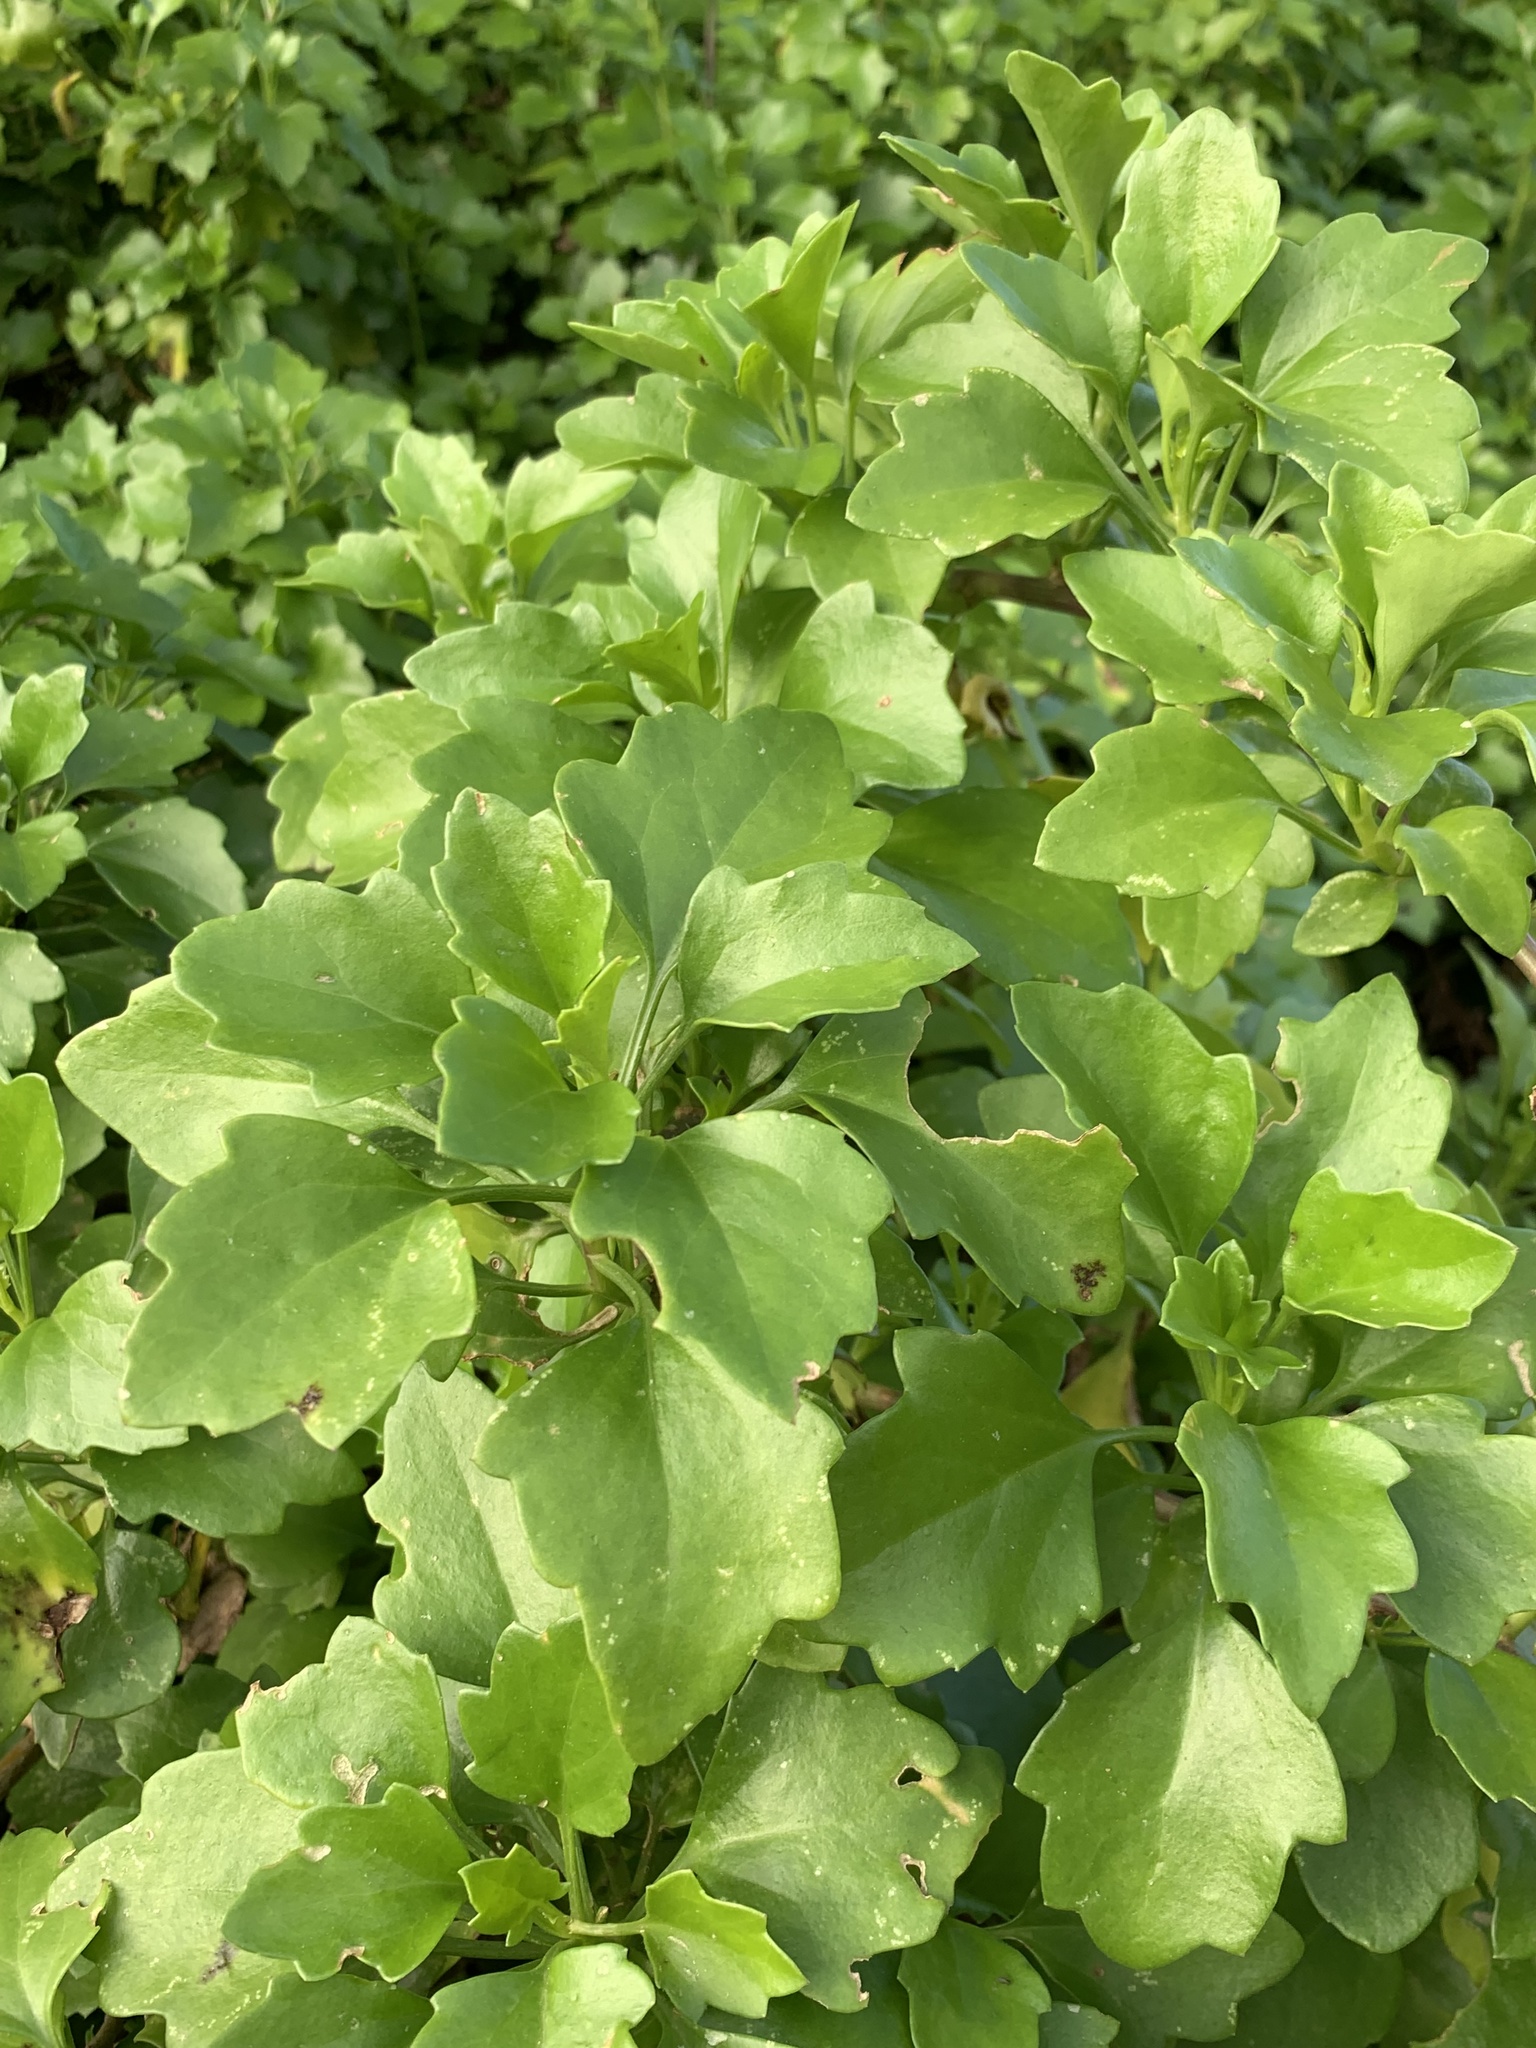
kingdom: Plantae
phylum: Tracheophyta
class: Magnoliopsida
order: Asterales
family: Asteraceae
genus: Senecio
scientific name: Senecio angulatus
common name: Climbing groundsel
